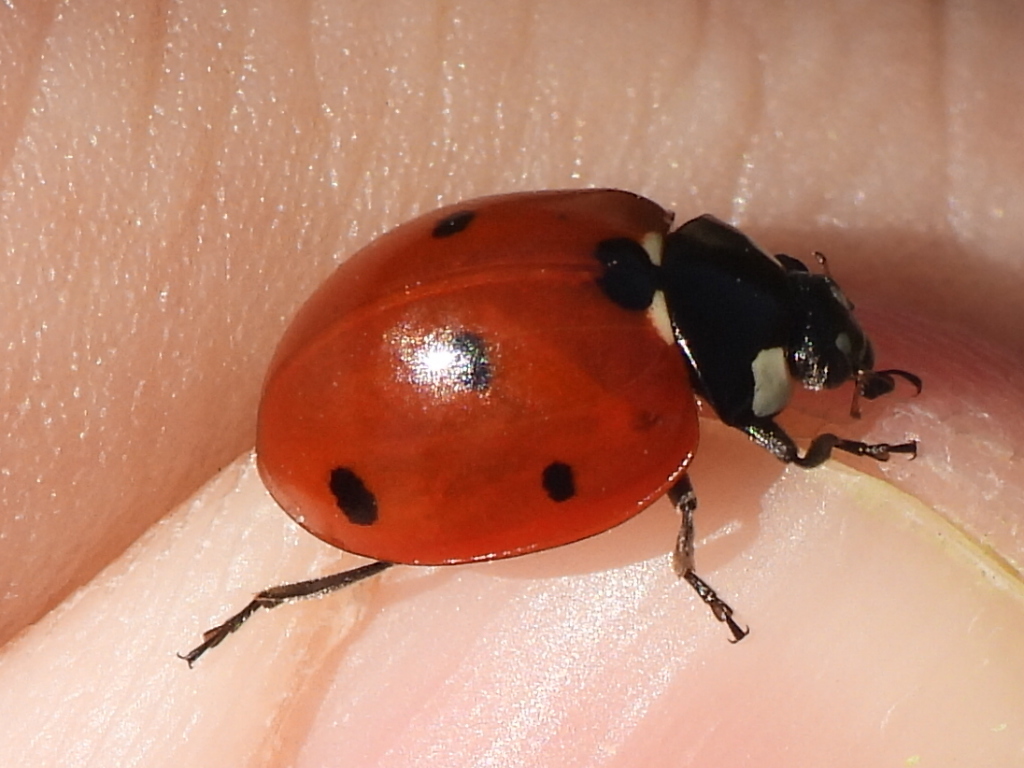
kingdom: Animalia
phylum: Arthropoda
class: Insecta
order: Coleoptera
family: Coccinellidae
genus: Coccinella
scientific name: Coccinella septempunctata
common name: Sevenspotted lady beetle
